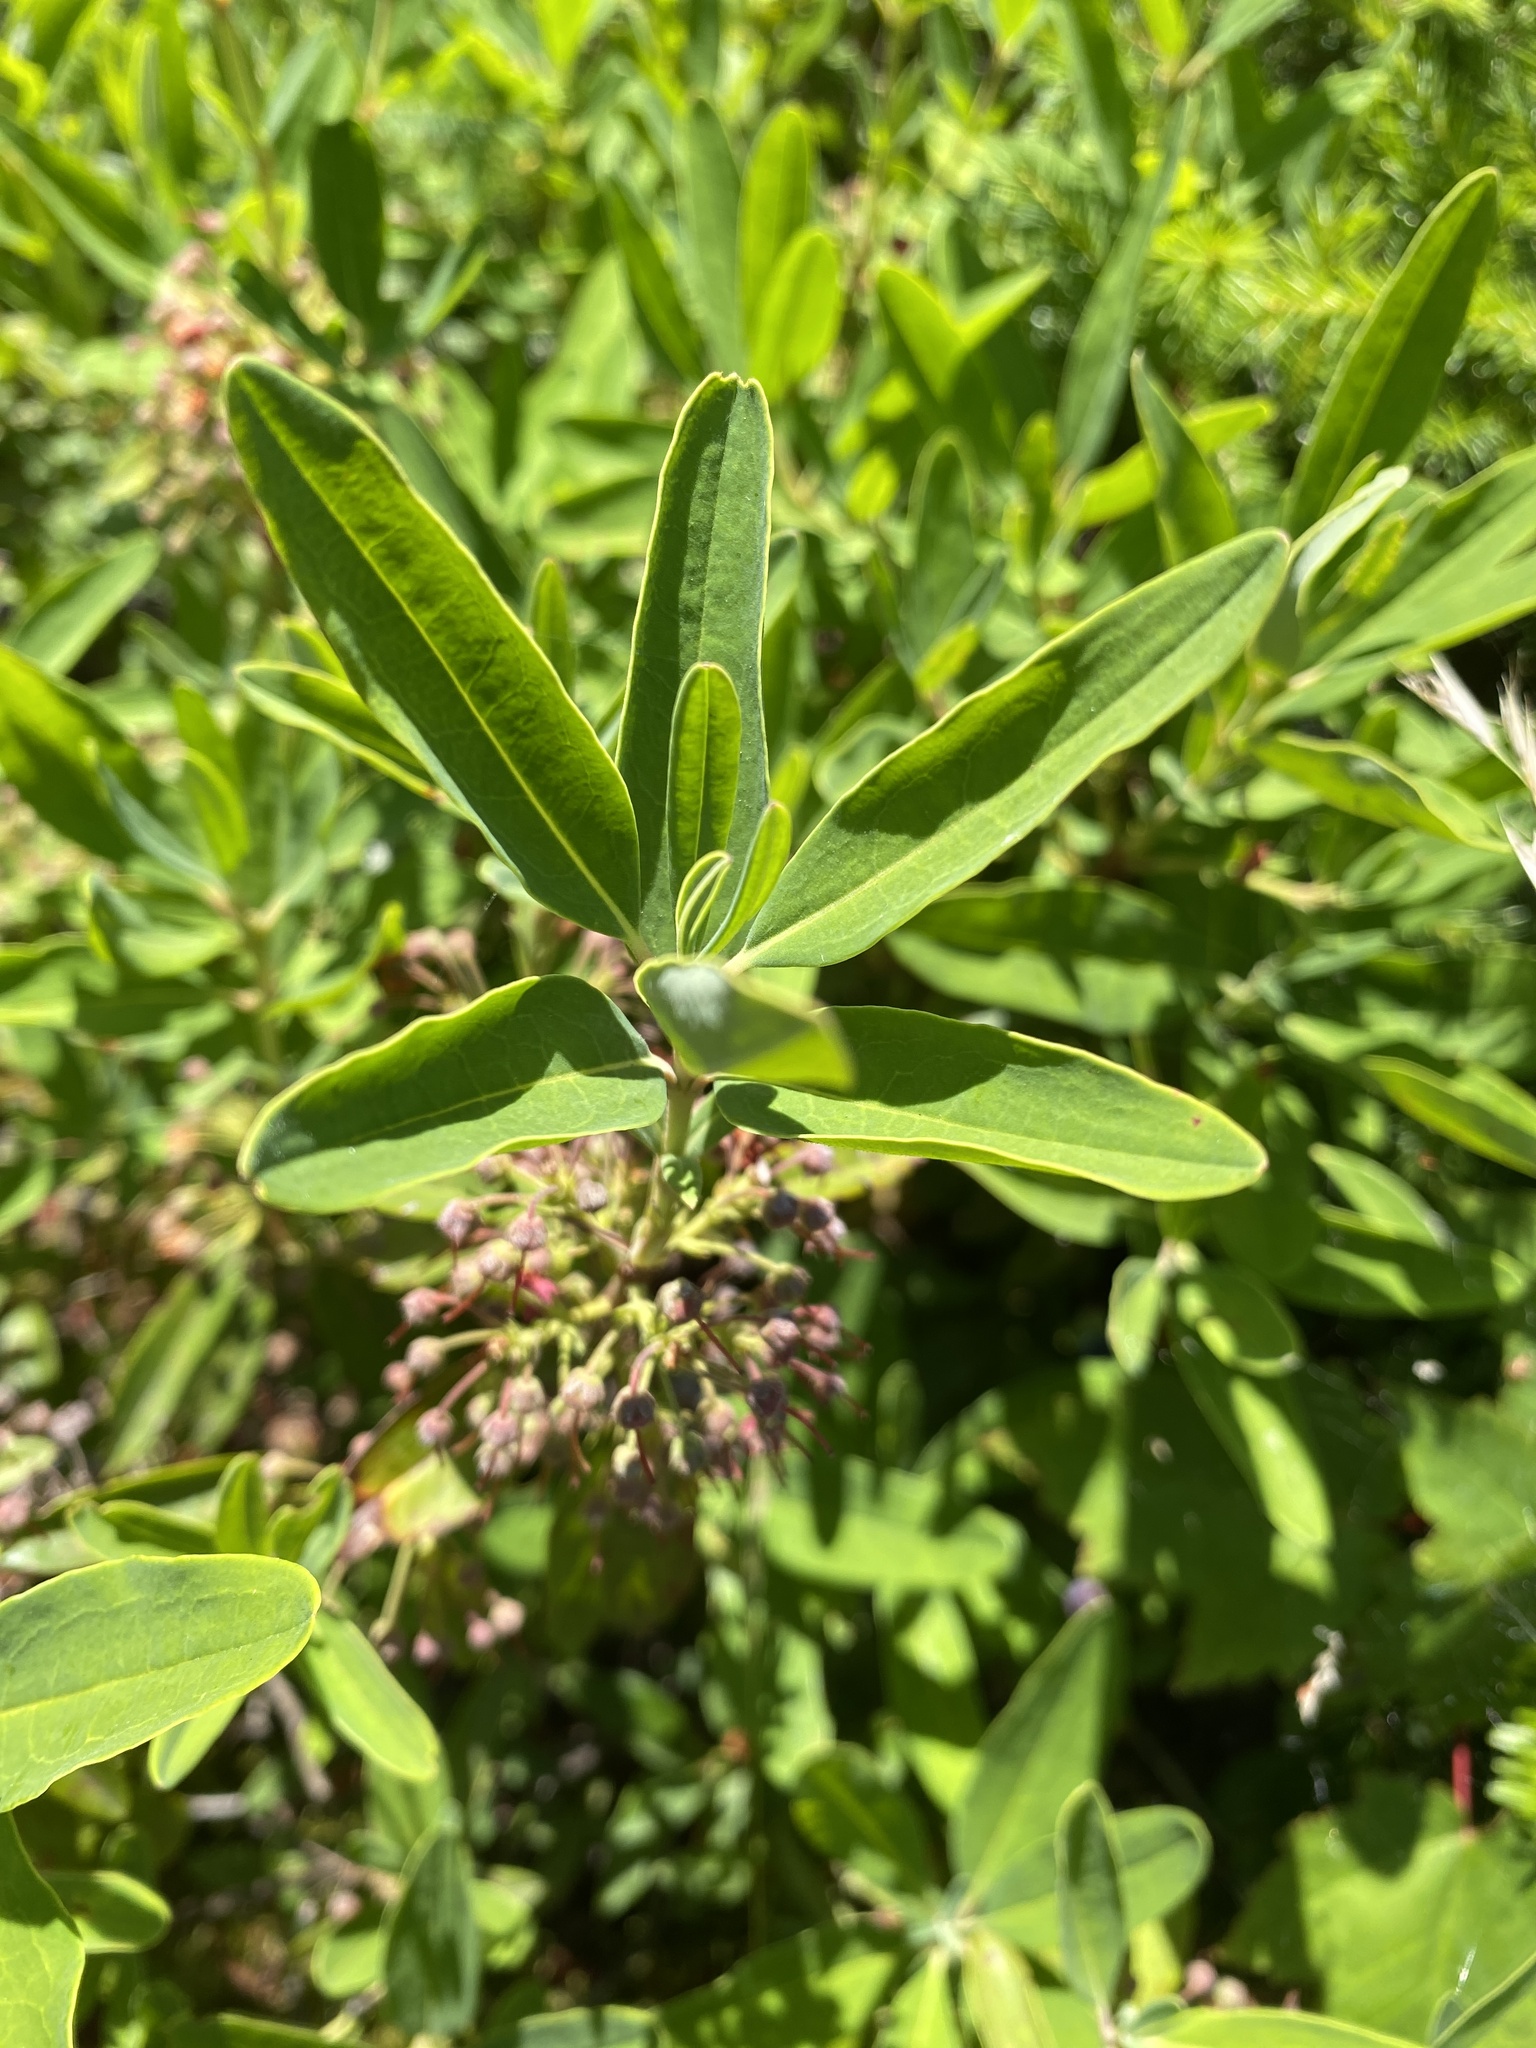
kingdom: Plantae
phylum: Tracheophyta
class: Magnoliopsida
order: Ericales
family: Ericaceae
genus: Kalmia
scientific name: Kalmia angustifolia
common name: Sheep-laurel
